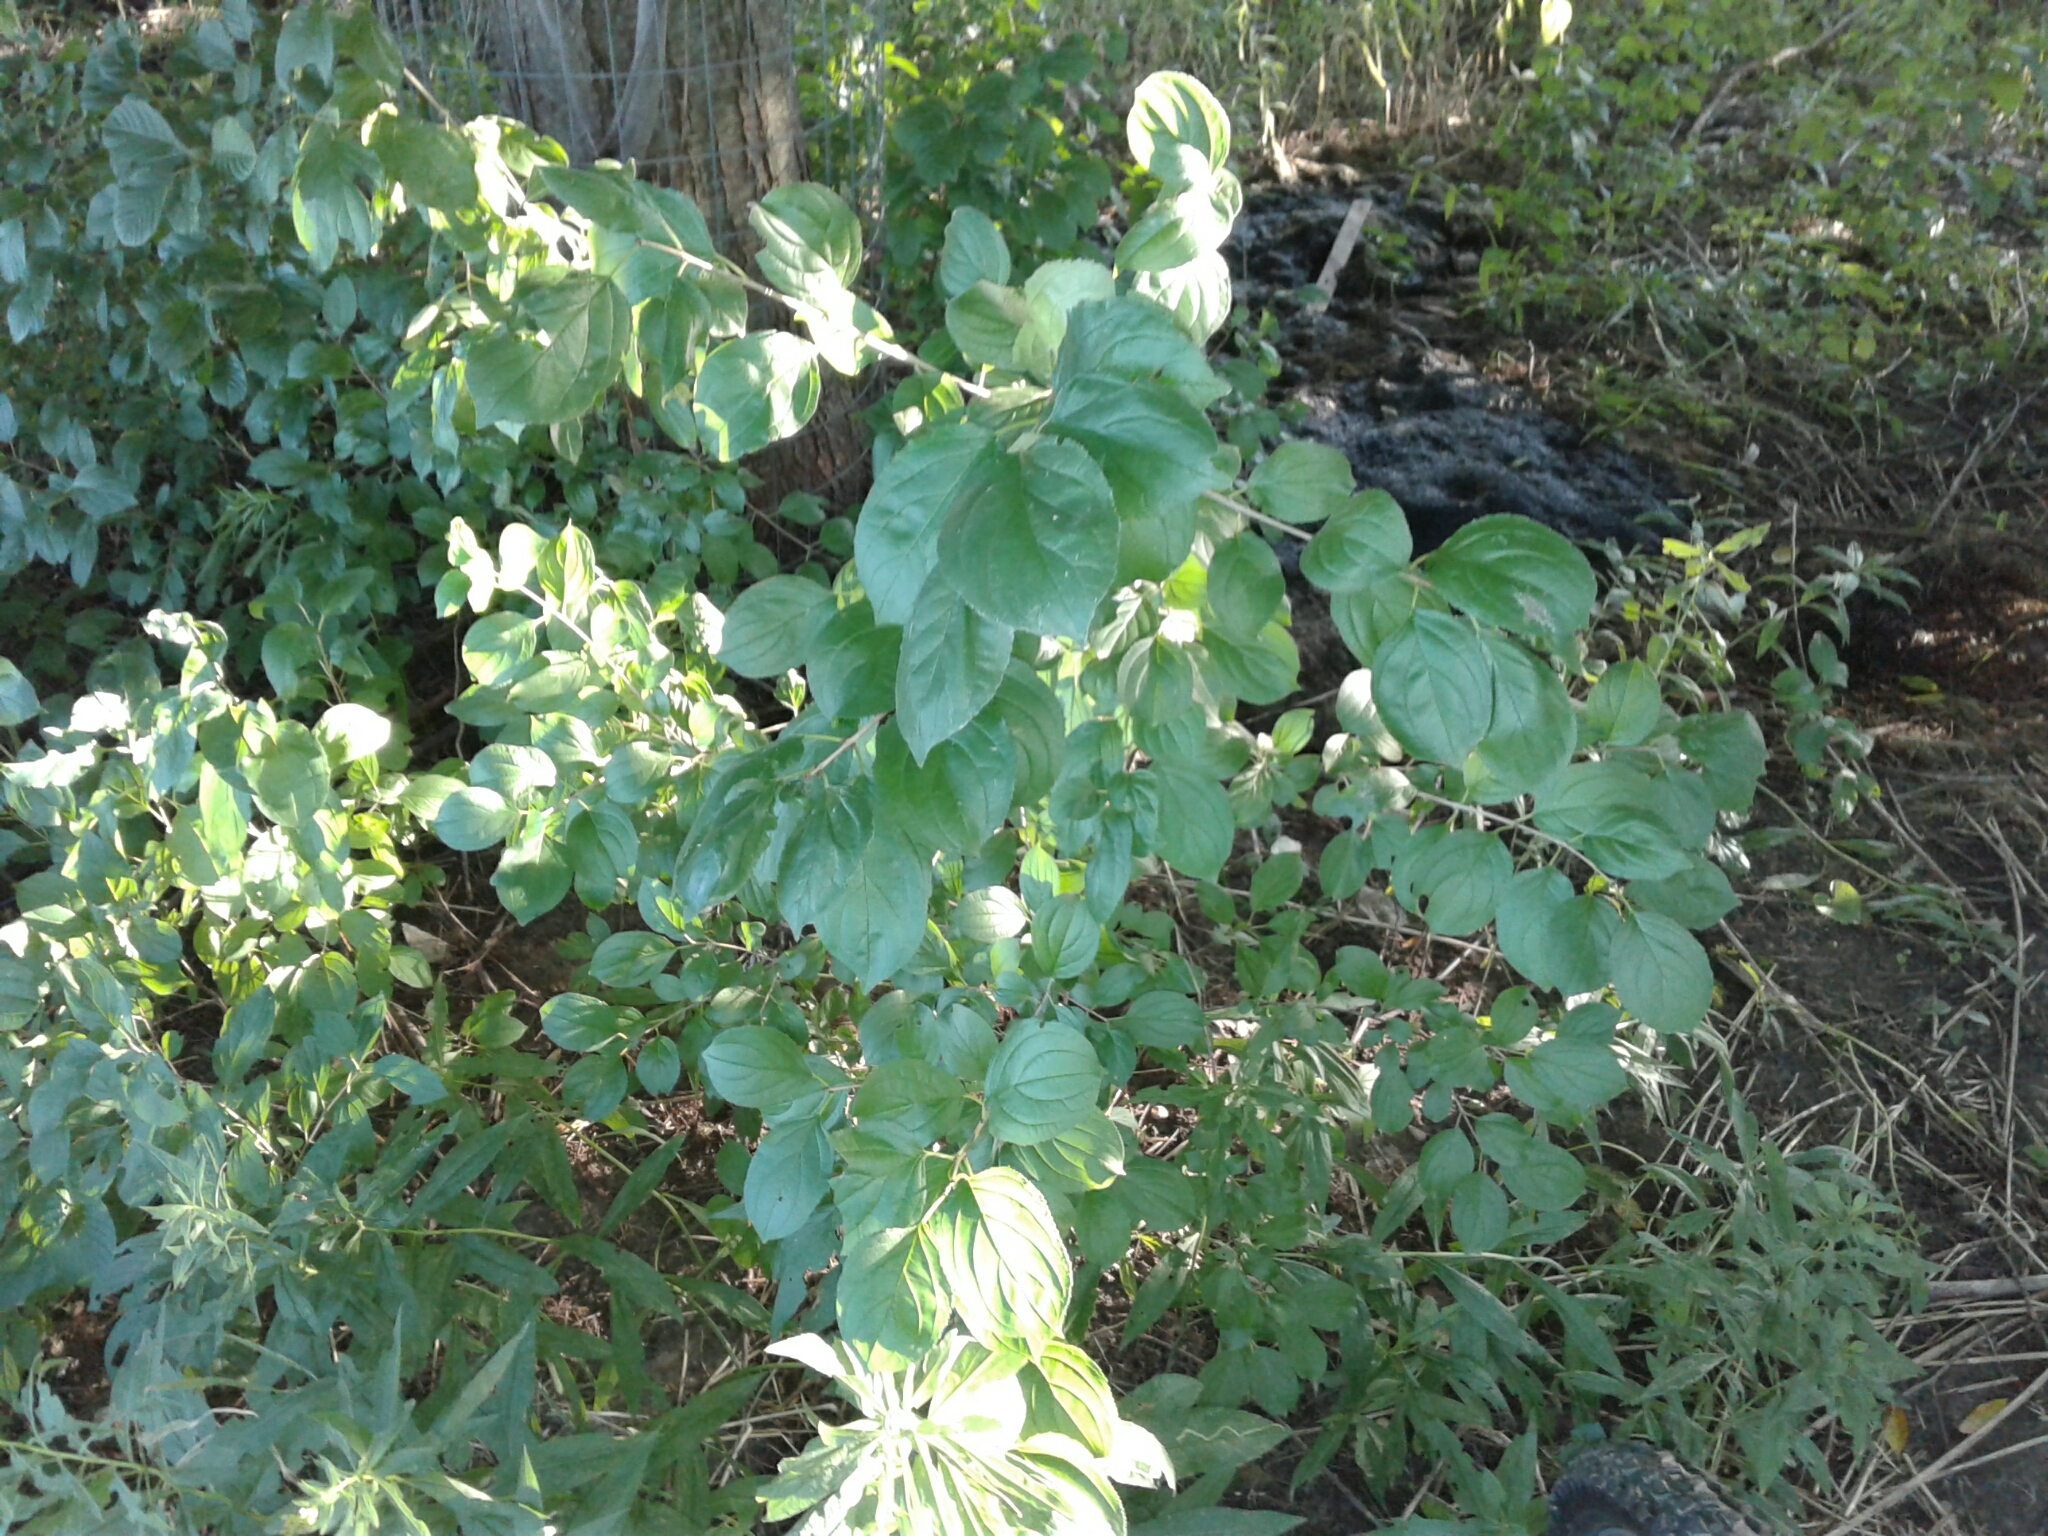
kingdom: Plantae
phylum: Tracheophyta
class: Magnoliopsida
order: Rosales
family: Rhamnaceae
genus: Rhamnus
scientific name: Rhamnus cathartica
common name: Common buckthorn
